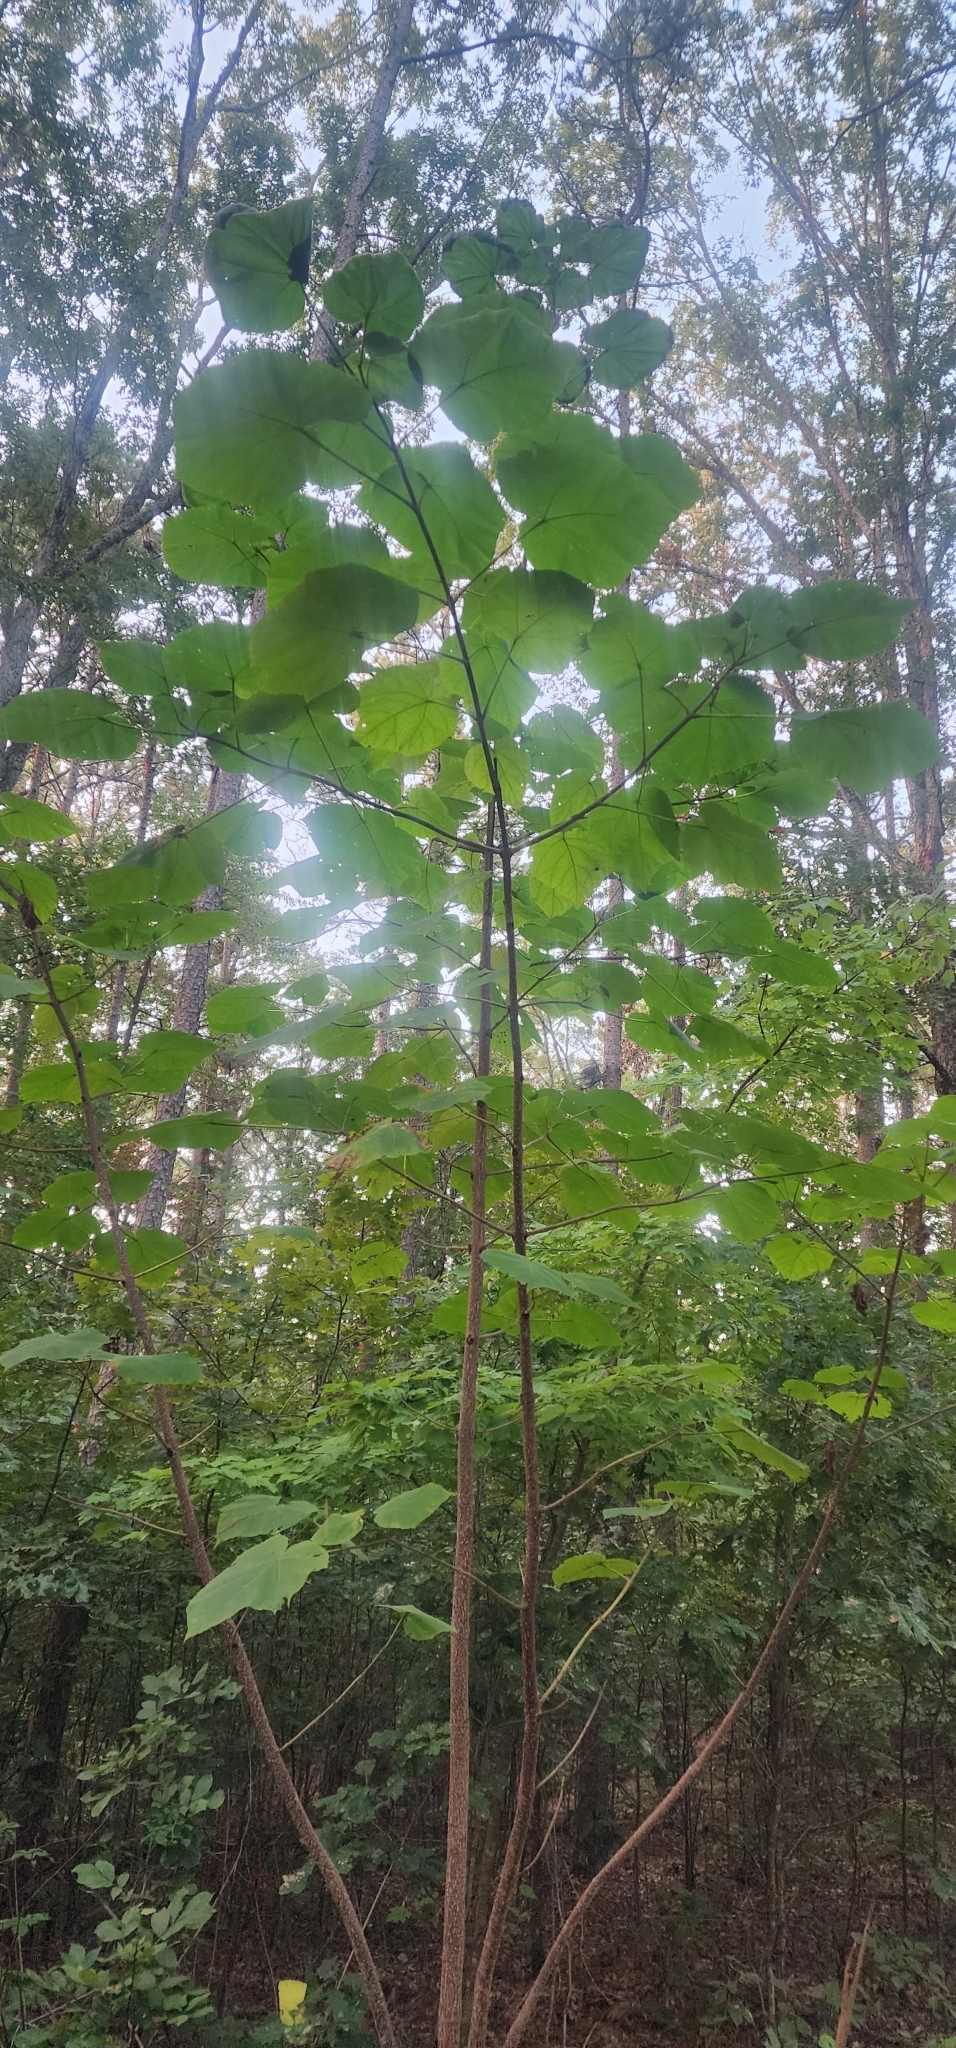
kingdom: Plantae
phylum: Tracheophyta
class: Magnoliopsida
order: Lamiales
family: Paulowniaceae
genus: Paulownia
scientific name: Paulownia tomentosa
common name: Foxglove-tree
